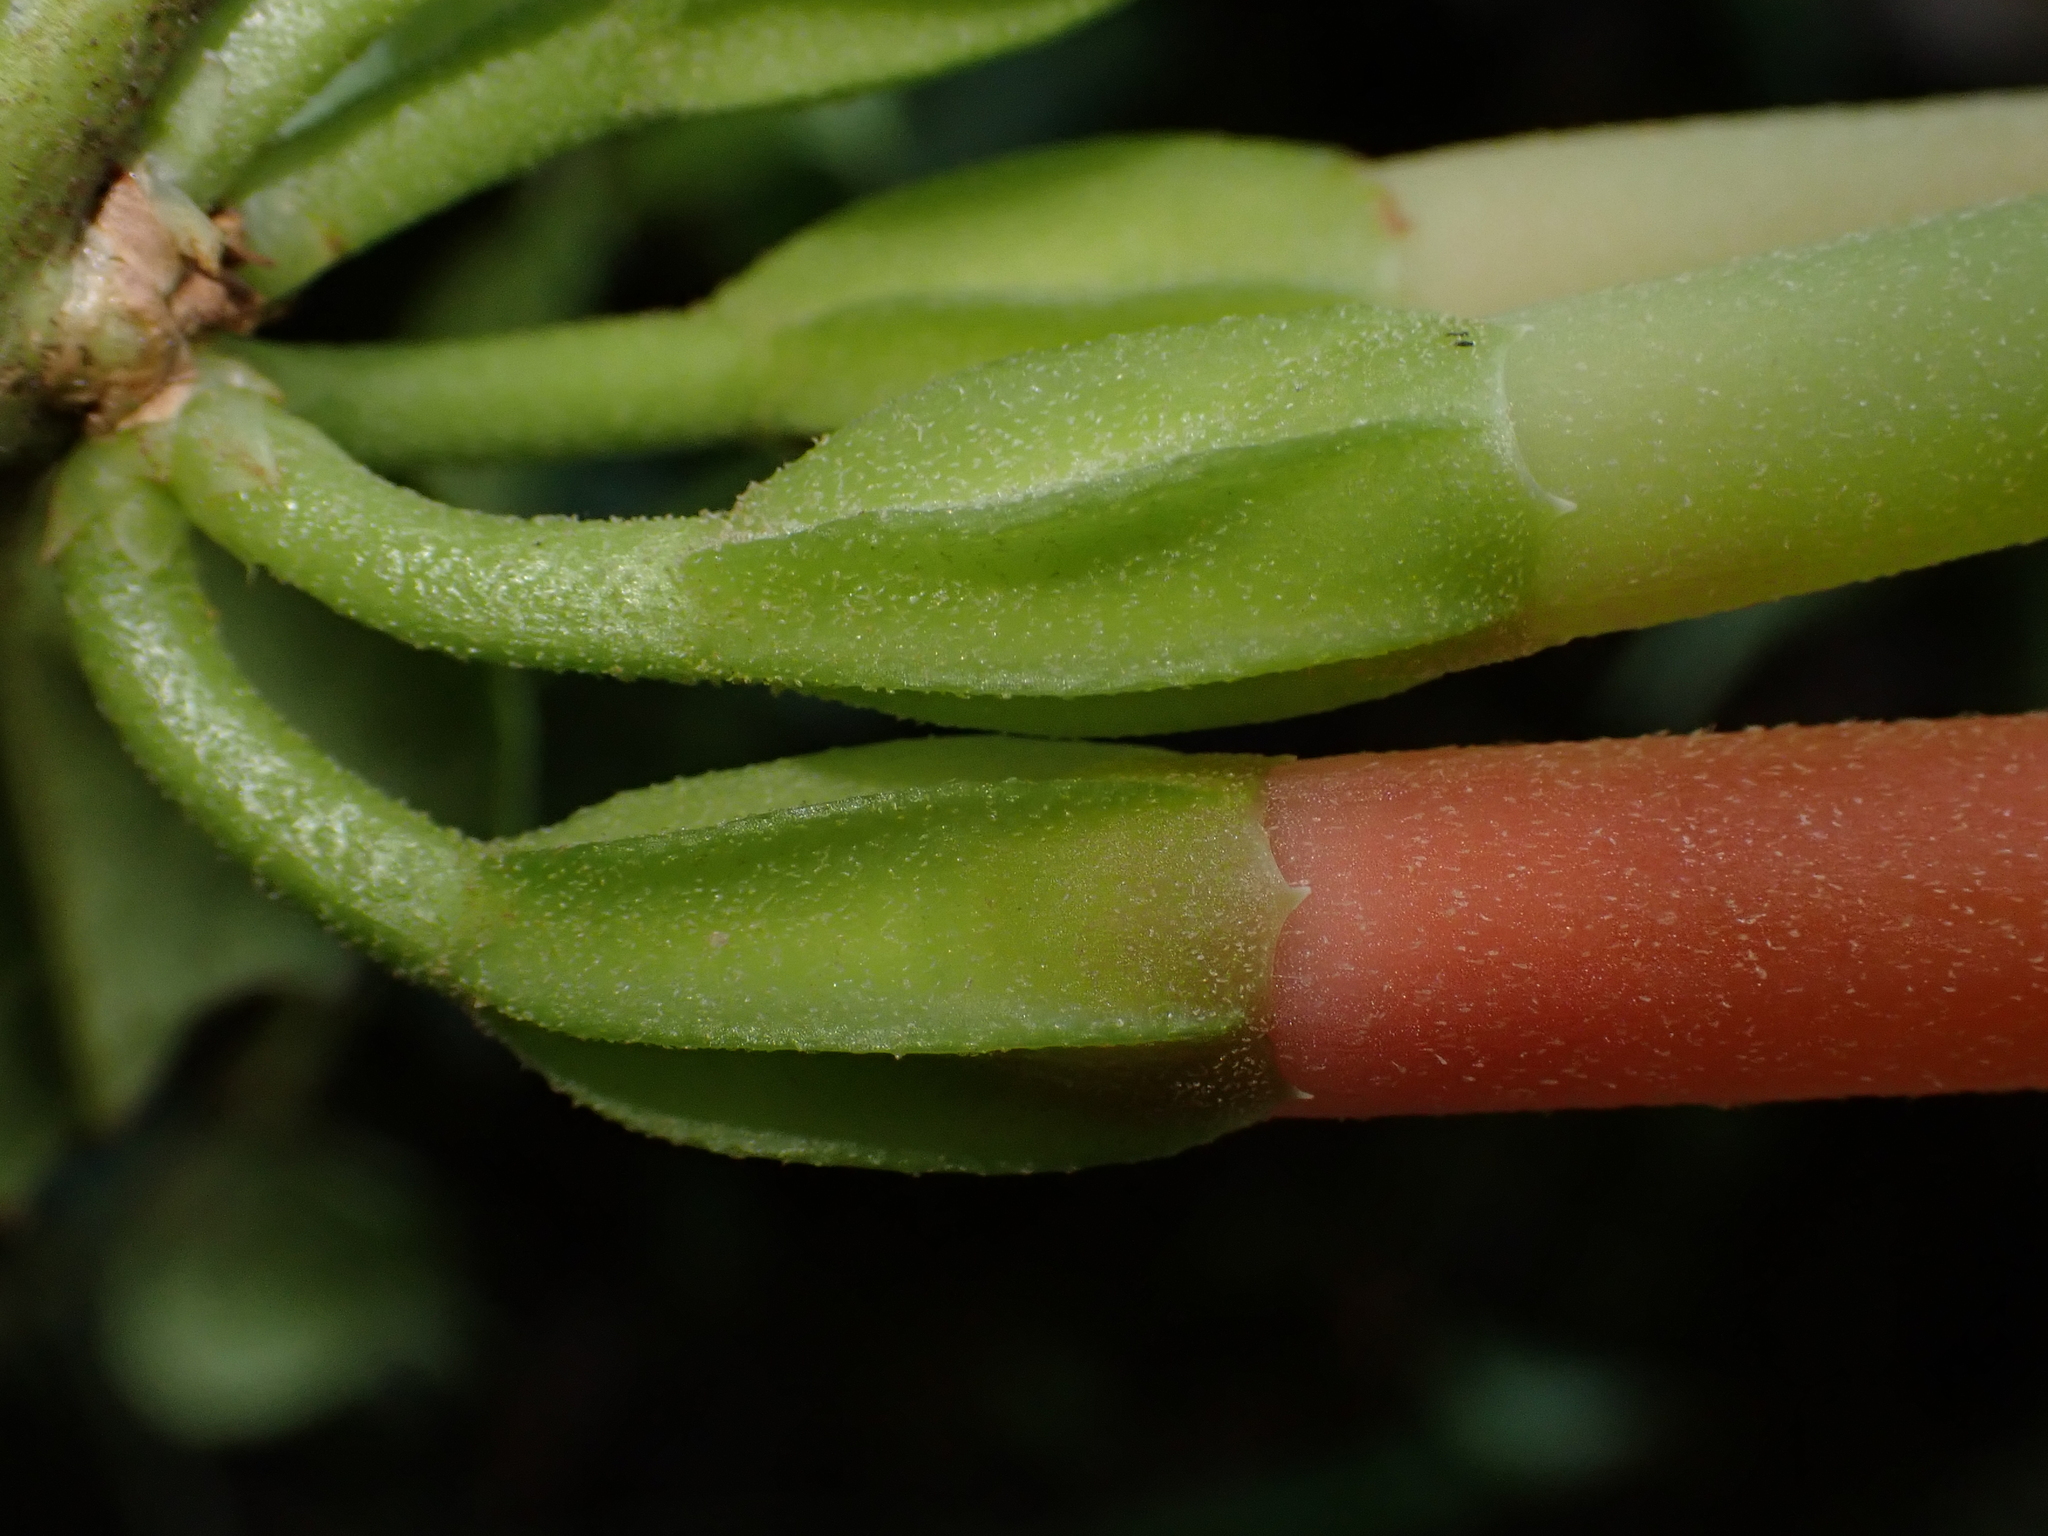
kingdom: Plantae
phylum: Tracheophyta
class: Magnoliopsida
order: Ericales
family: Ericaceae
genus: Macleania
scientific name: Macleania bullata
